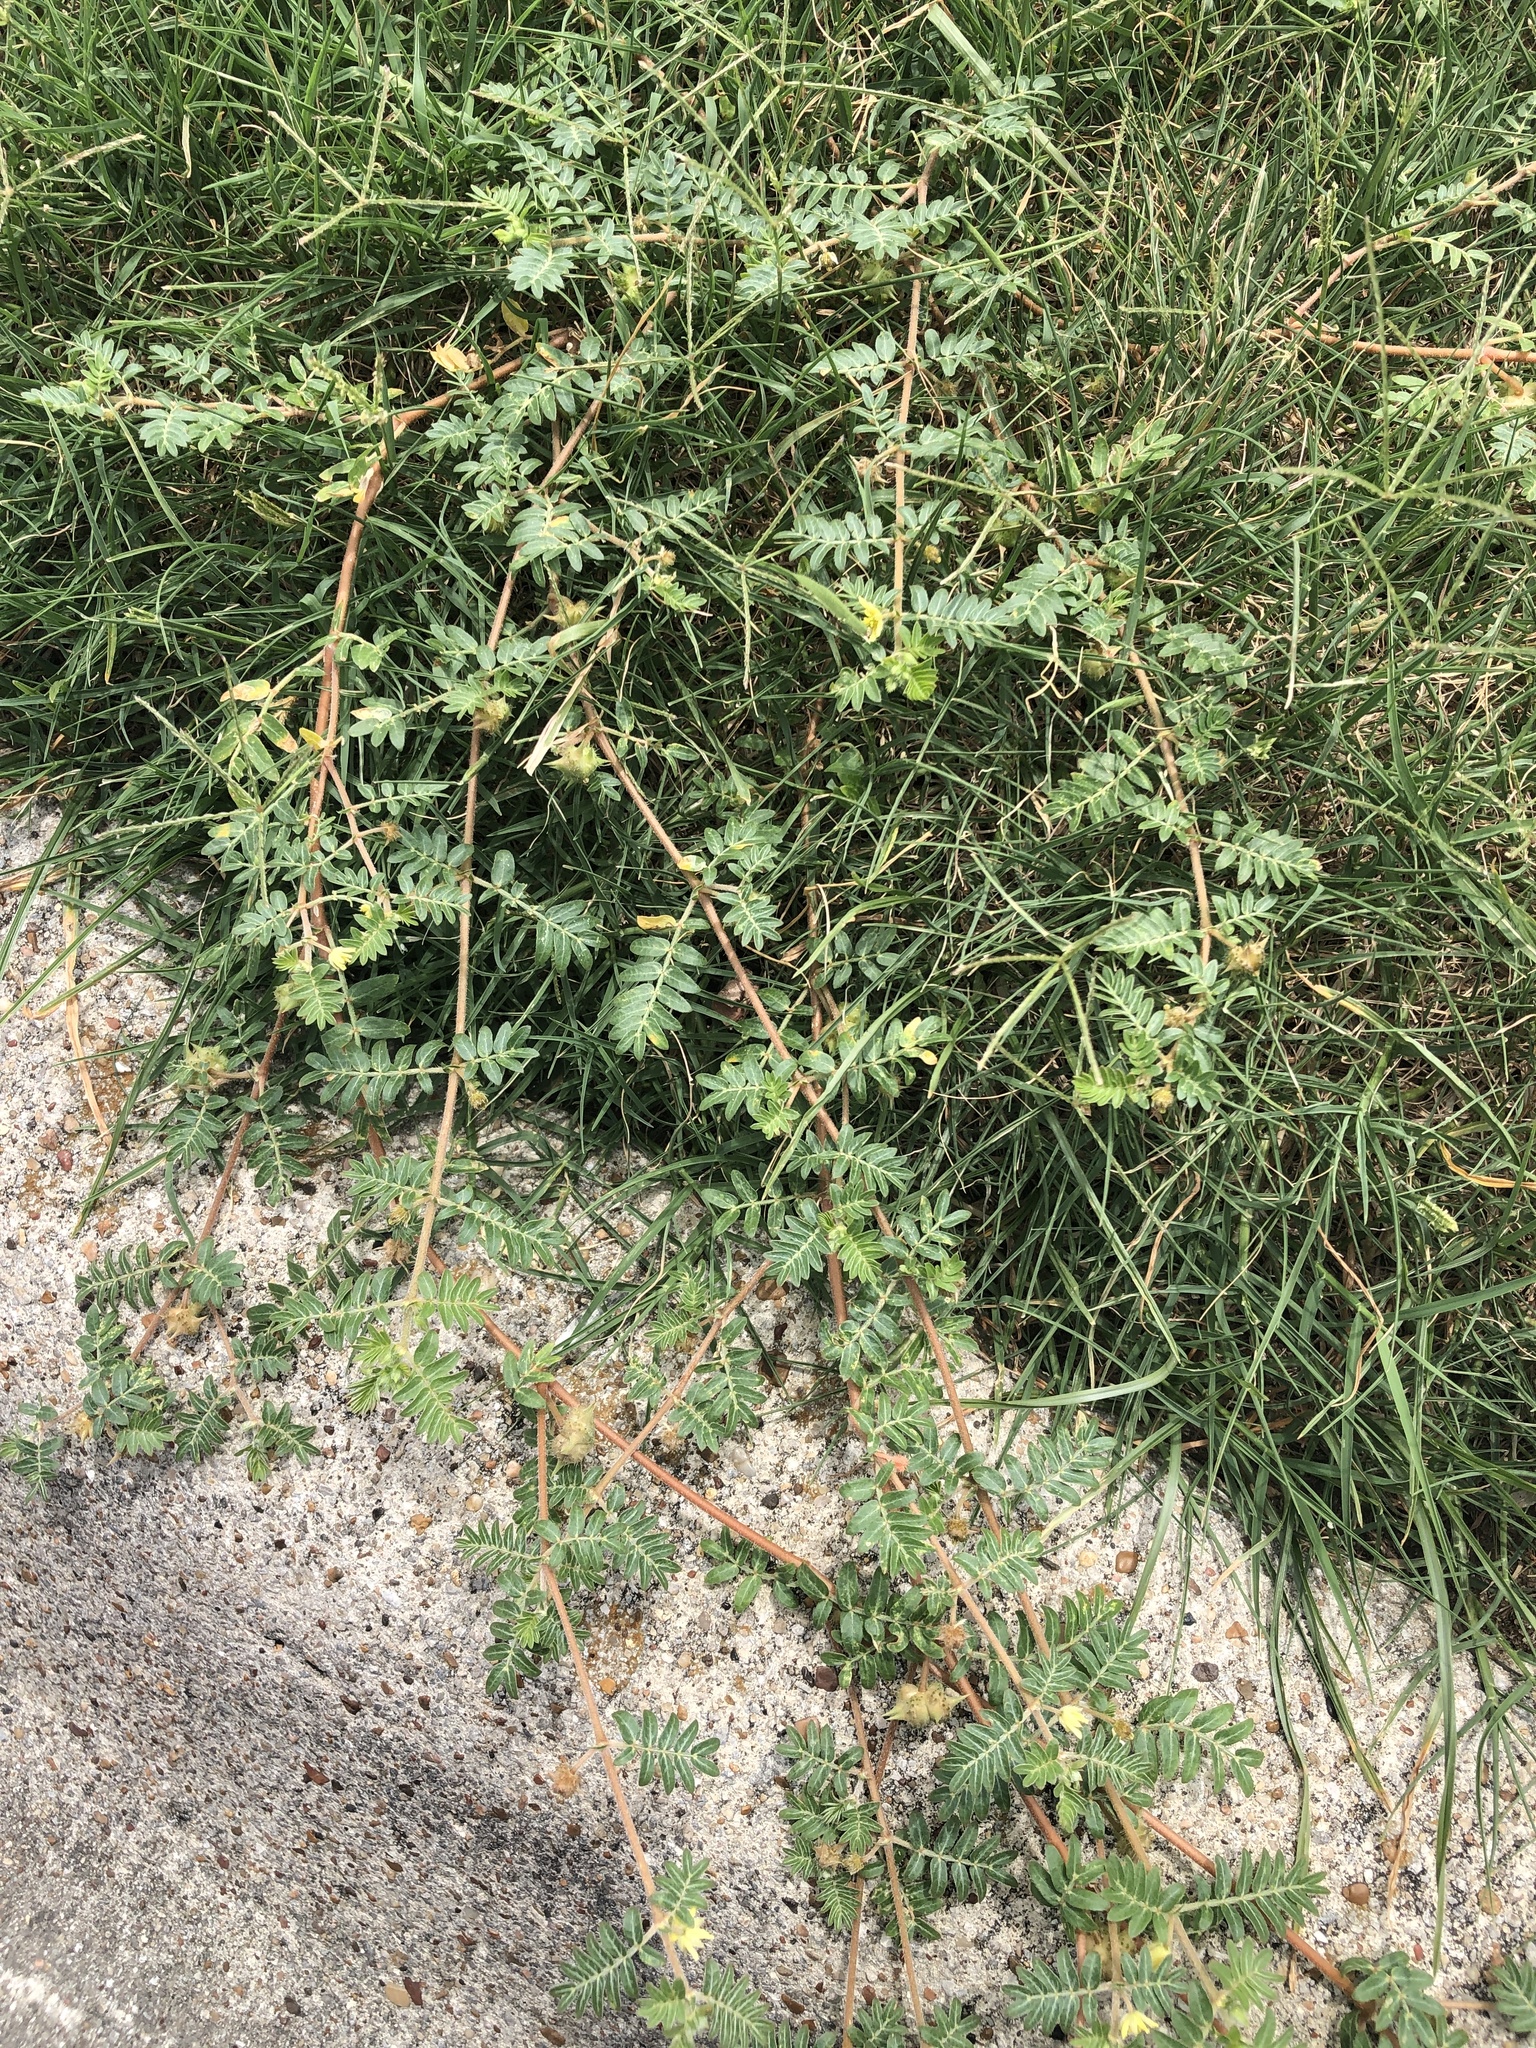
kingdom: Plantae
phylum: Tracheophyta
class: Magnoliopsida
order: Zygophyllales
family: Zygophyllaceae
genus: Tribulus
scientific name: Tribulus terrestris
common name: Puncturevine
